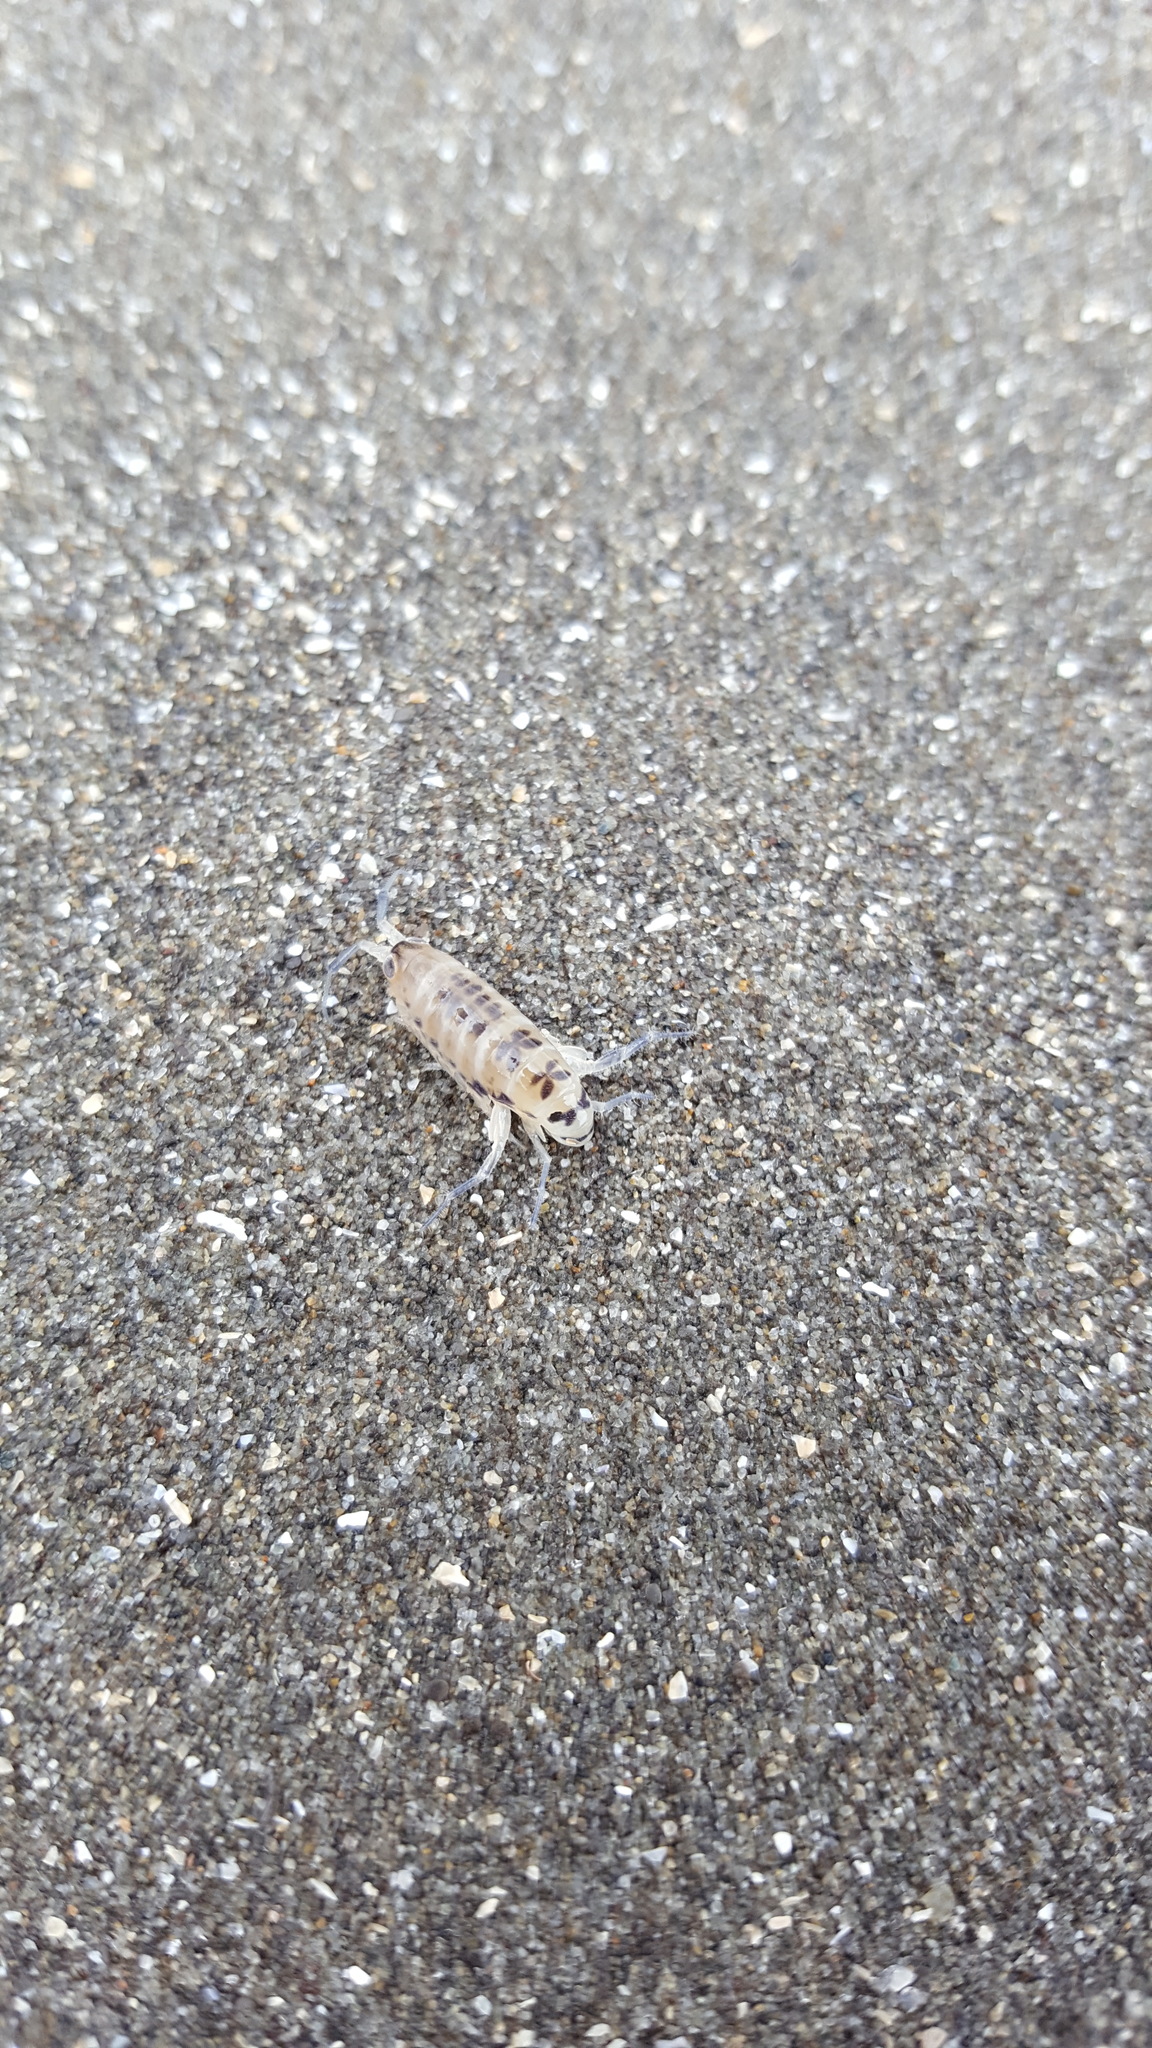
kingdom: Animalia
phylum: Arthropoda
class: Malacostraca
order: Amphipoda
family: Talitridae
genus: Megalorchestia
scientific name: Megalorchestia columbiana
